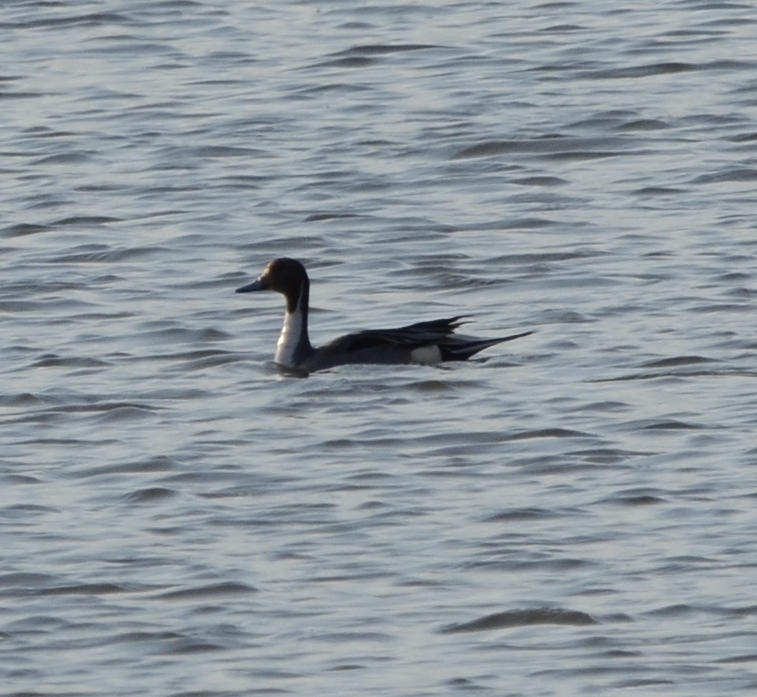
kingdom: Animalia
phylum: Chordata
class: Aves
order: Anseriformes
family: Anatidae
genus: Anas
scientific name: Anas acuta
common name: Northern pintail
